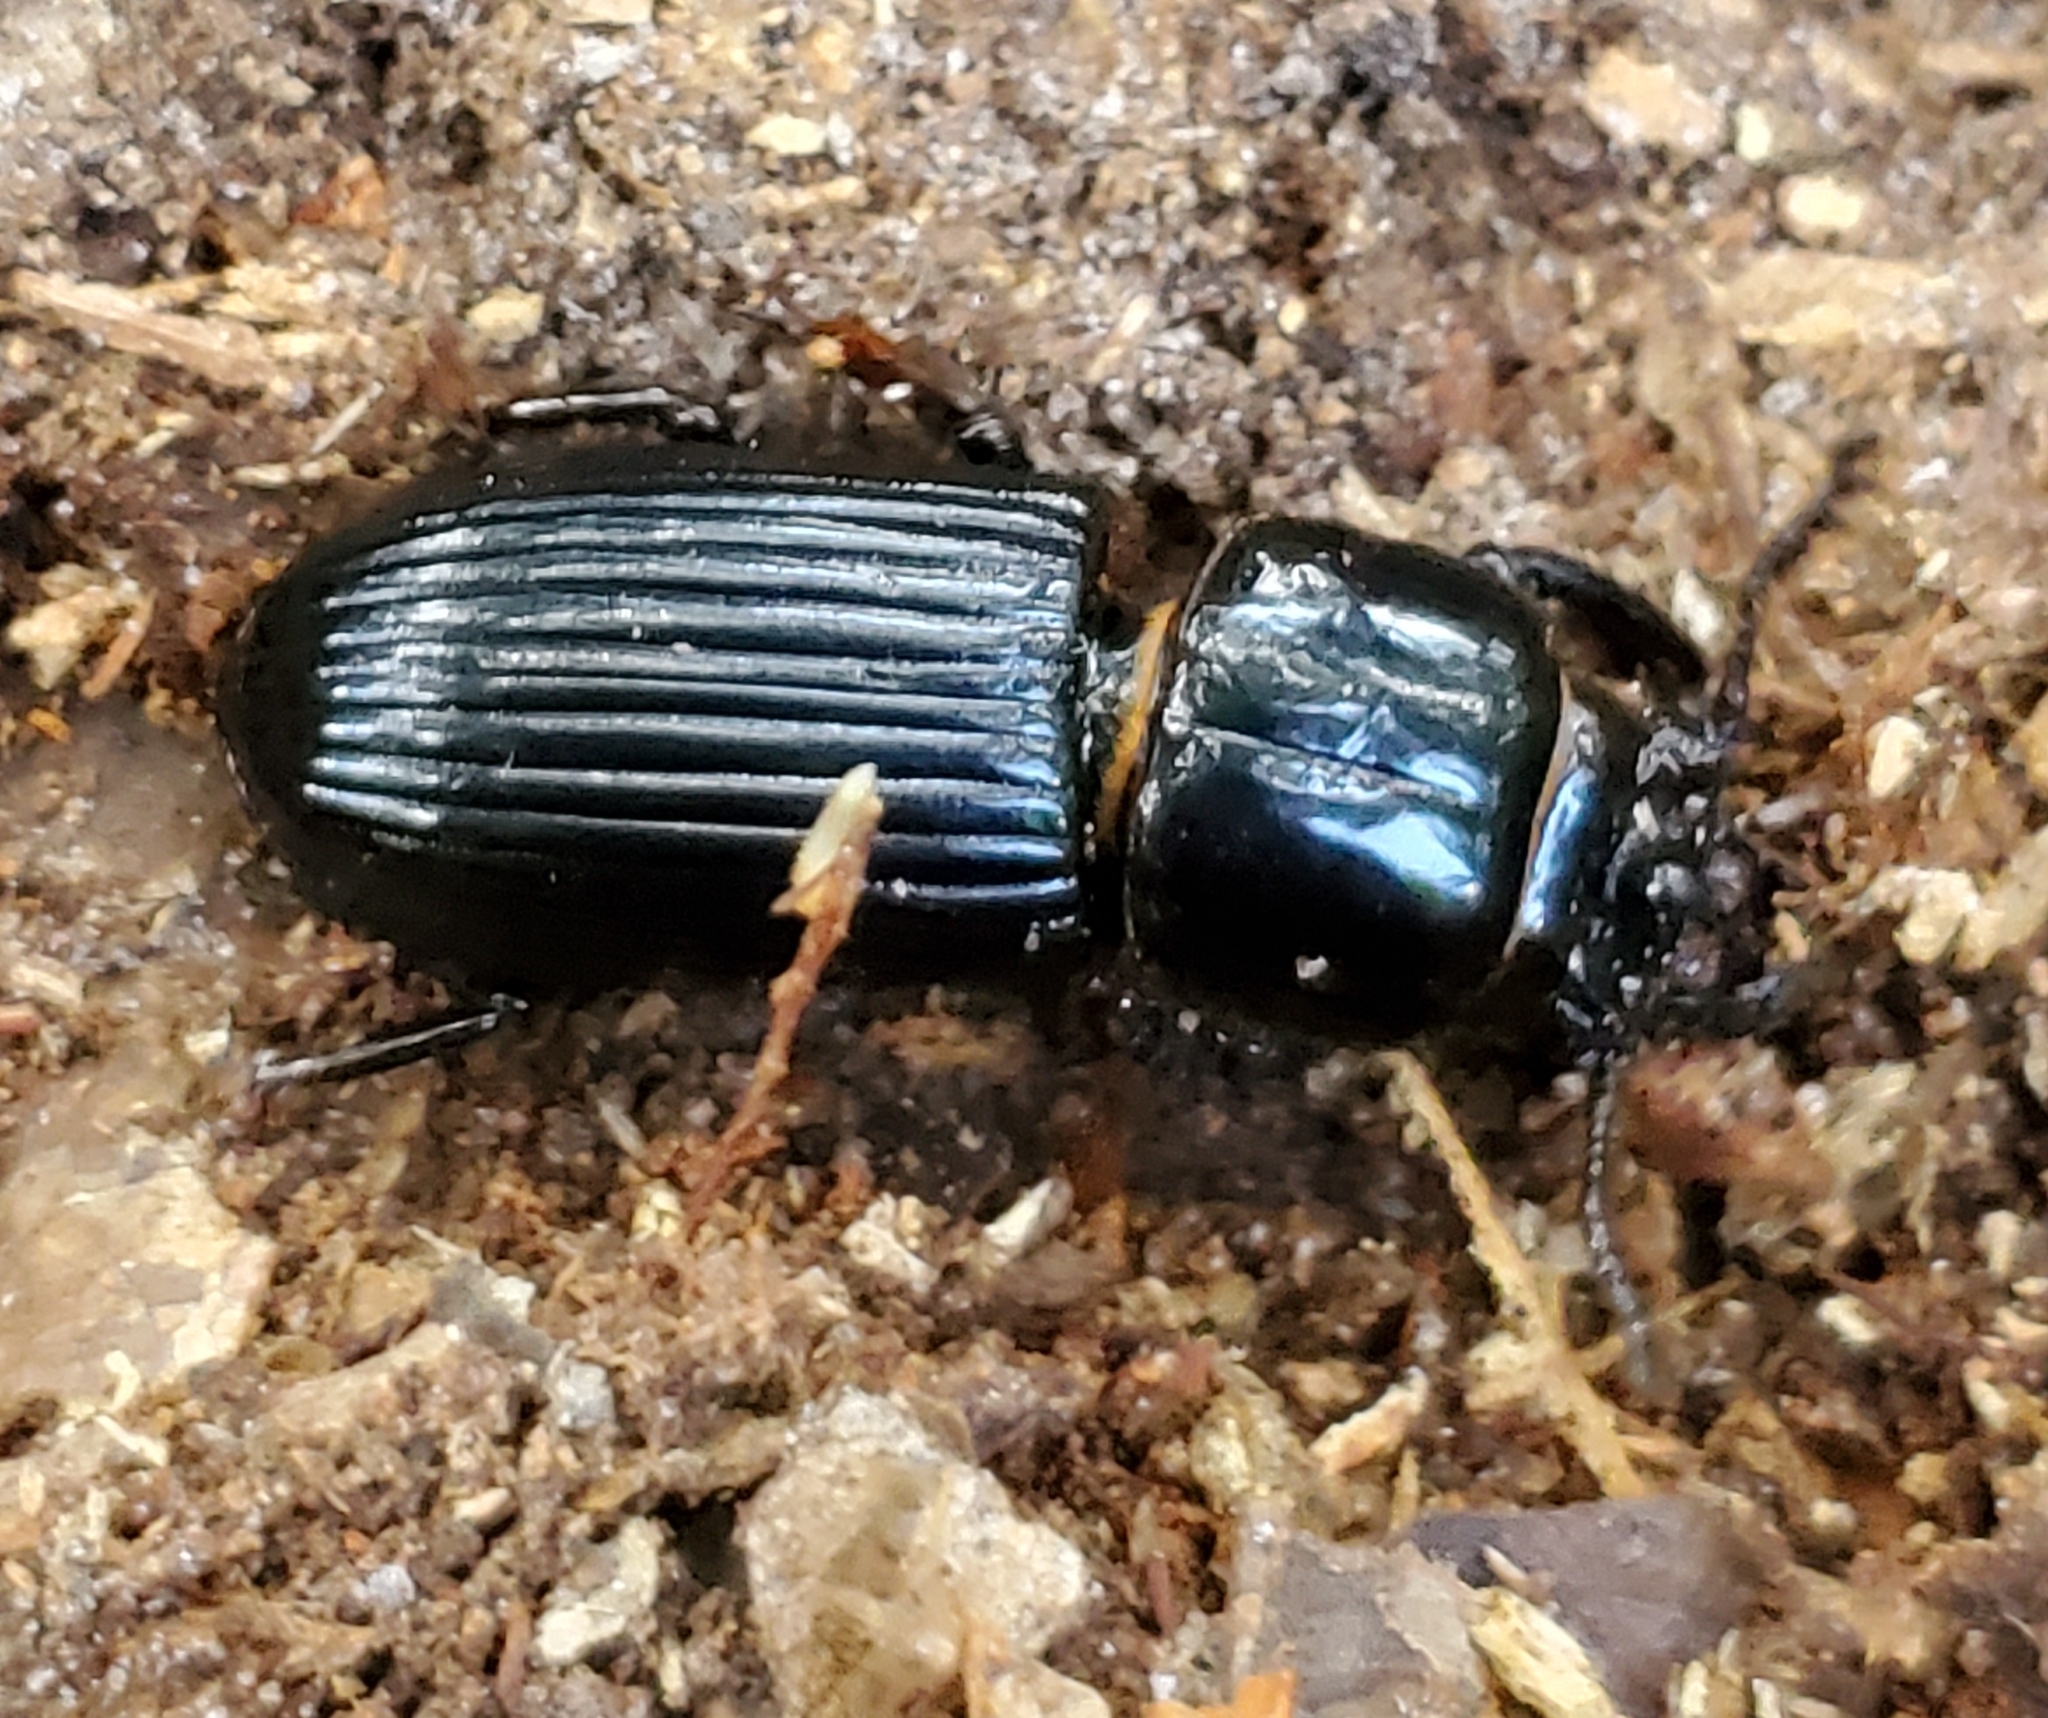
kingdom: Animalia
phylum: Arthropoda
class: Arachnida
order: Mesostigmata
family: Megisthanidae
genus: Megisthanus
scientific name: Megisthanus
